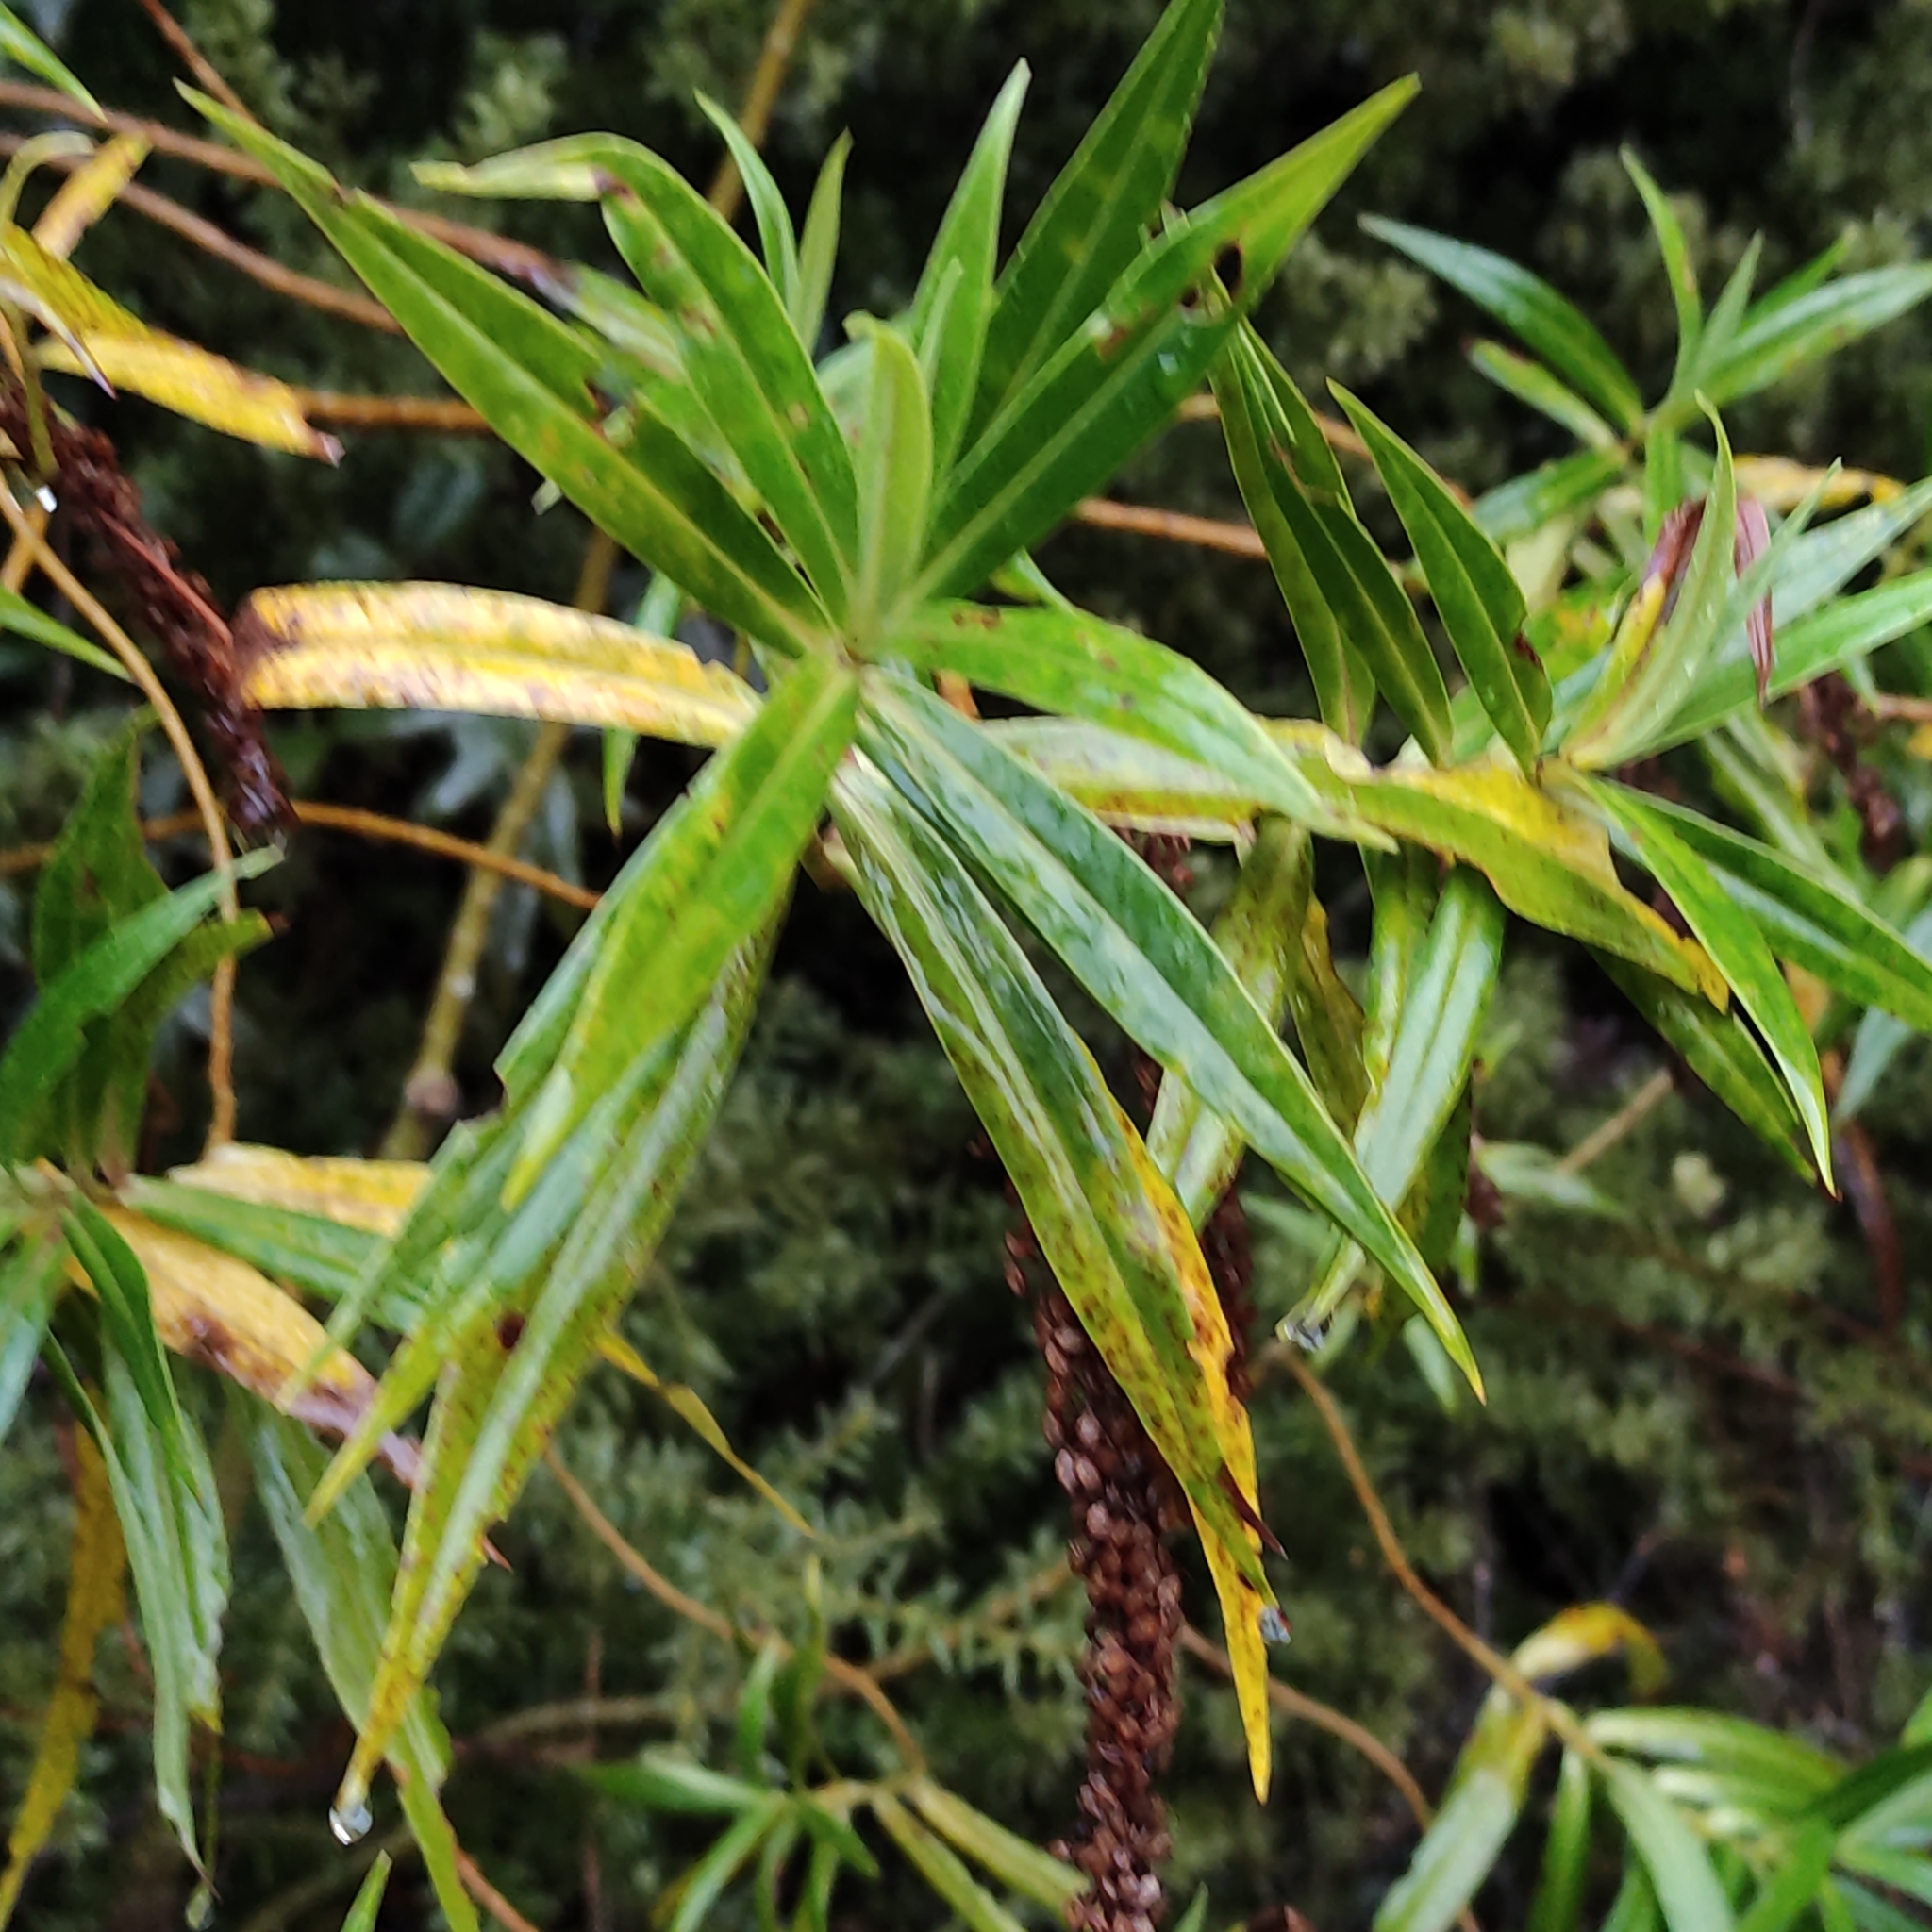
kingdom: Plantae
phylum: Tracheophyta
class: Magnoliopsida
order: Lamiales
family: Plantaginaceae
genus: Veronica
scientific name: Veronica salicifolia
